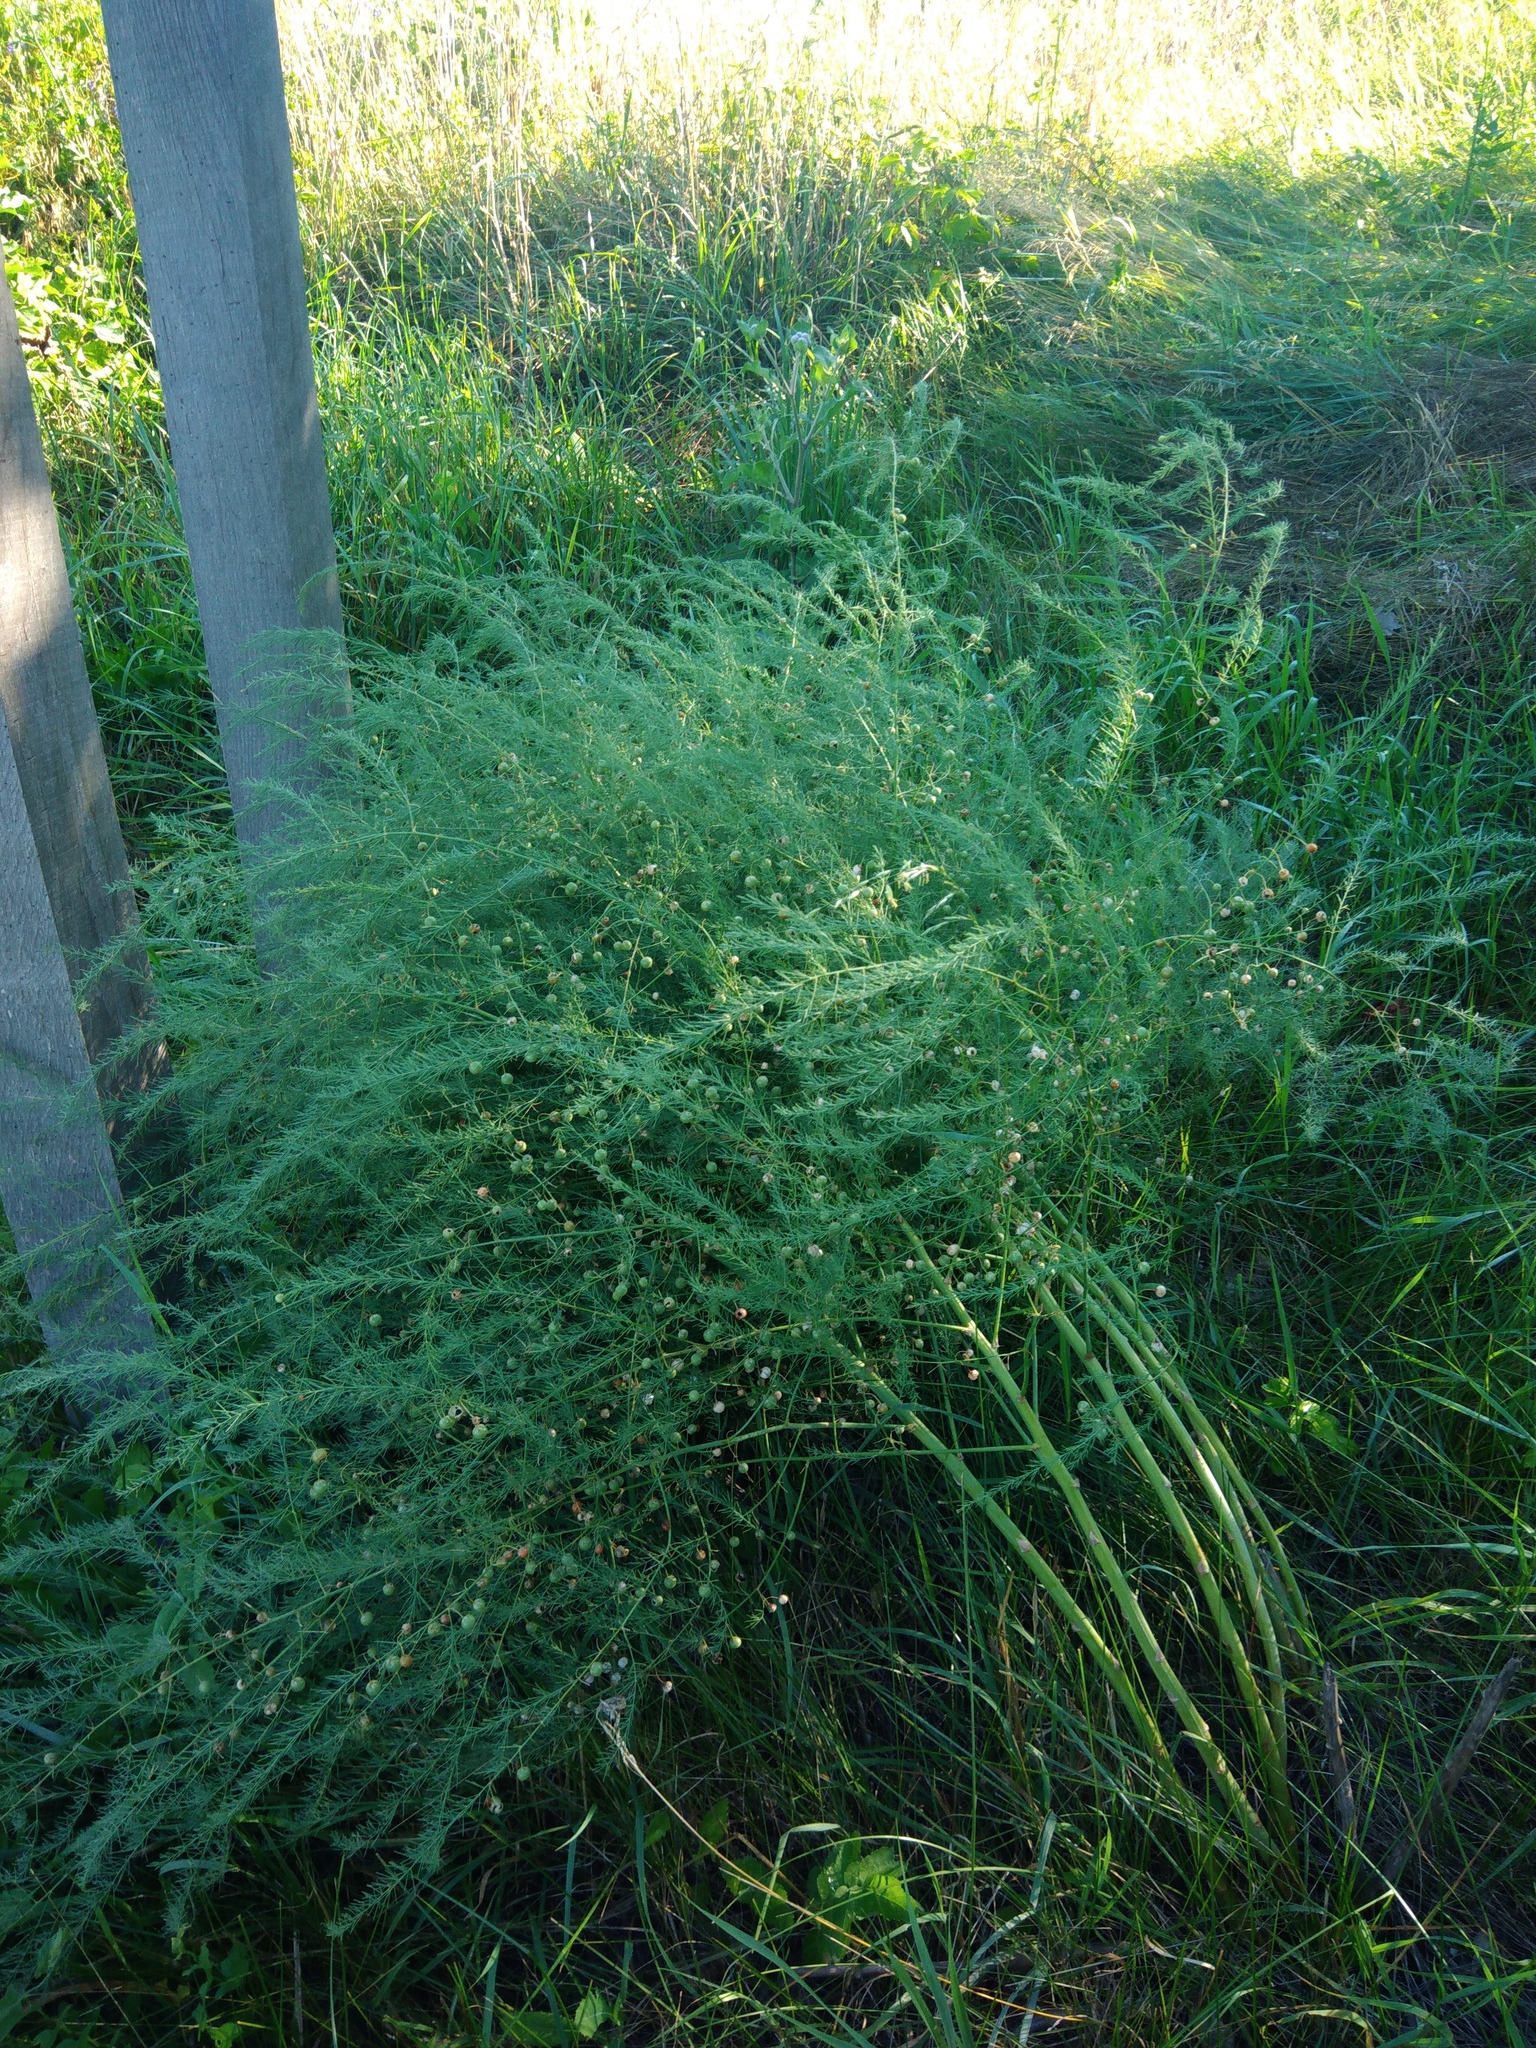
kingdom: Plantae
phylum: Tracheophyta
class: Liliopsida
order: Asparagales
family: Asparagaceae
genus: Asparagus
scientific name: Asparagus officinalis
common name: Garden asparagus
